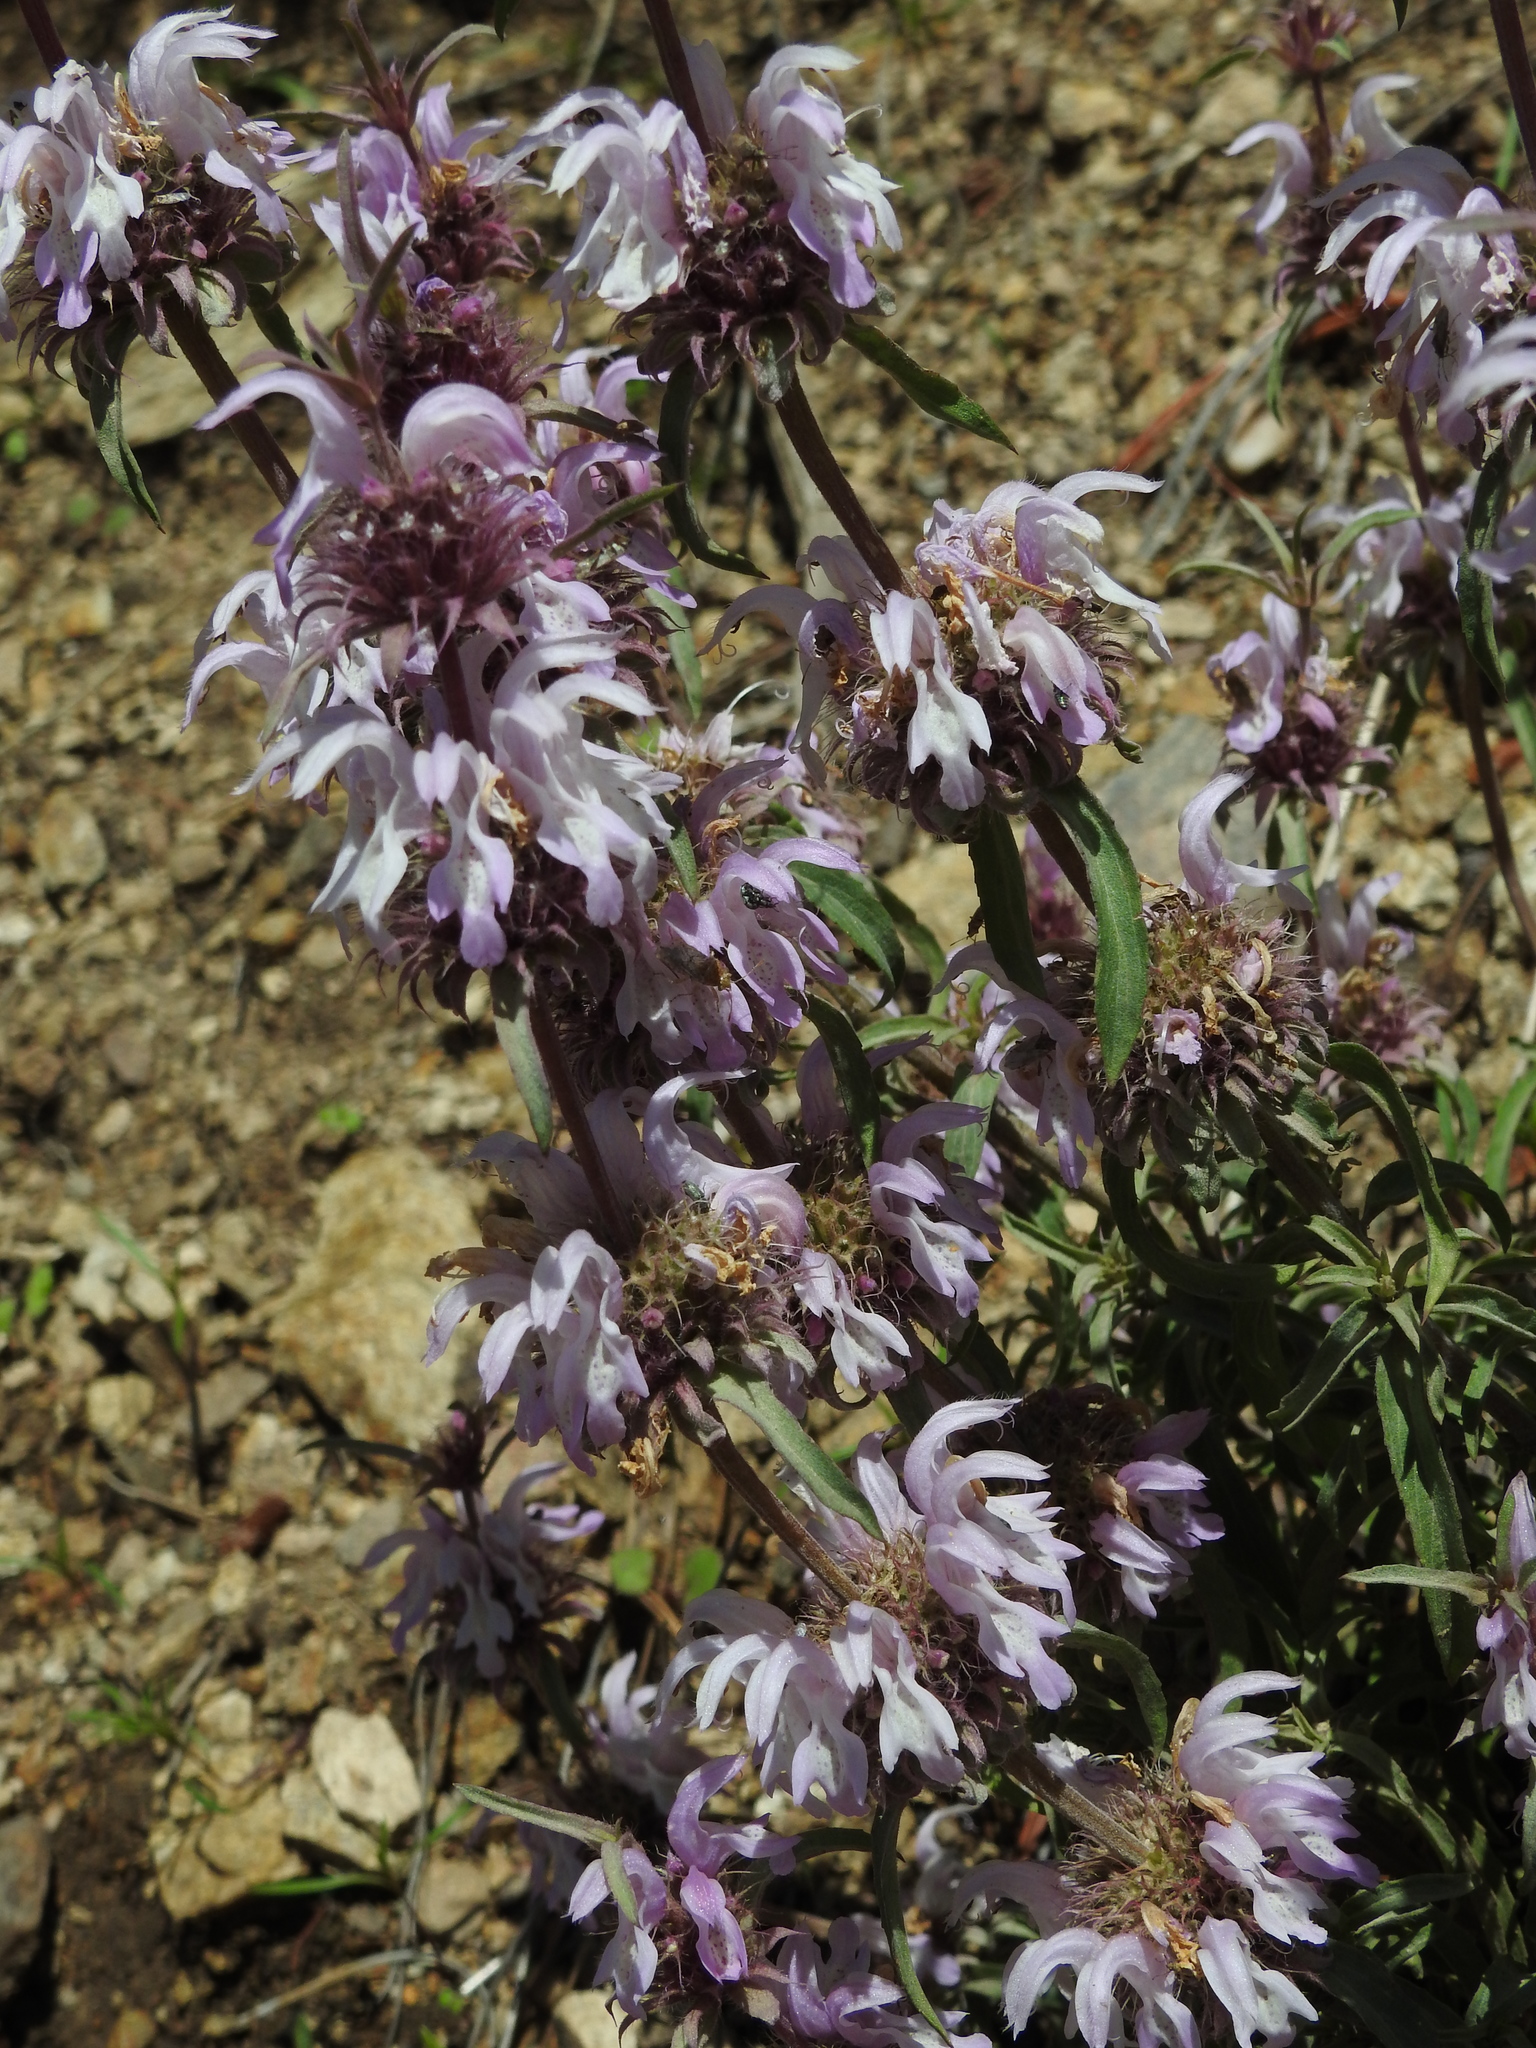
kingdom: Plantae
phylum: Tracheophyta
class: Magnoliopsida
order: Lamiales
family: Lamiaceae
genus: Monarda
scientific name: Monarda citriodora
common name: Lemon beebalm
